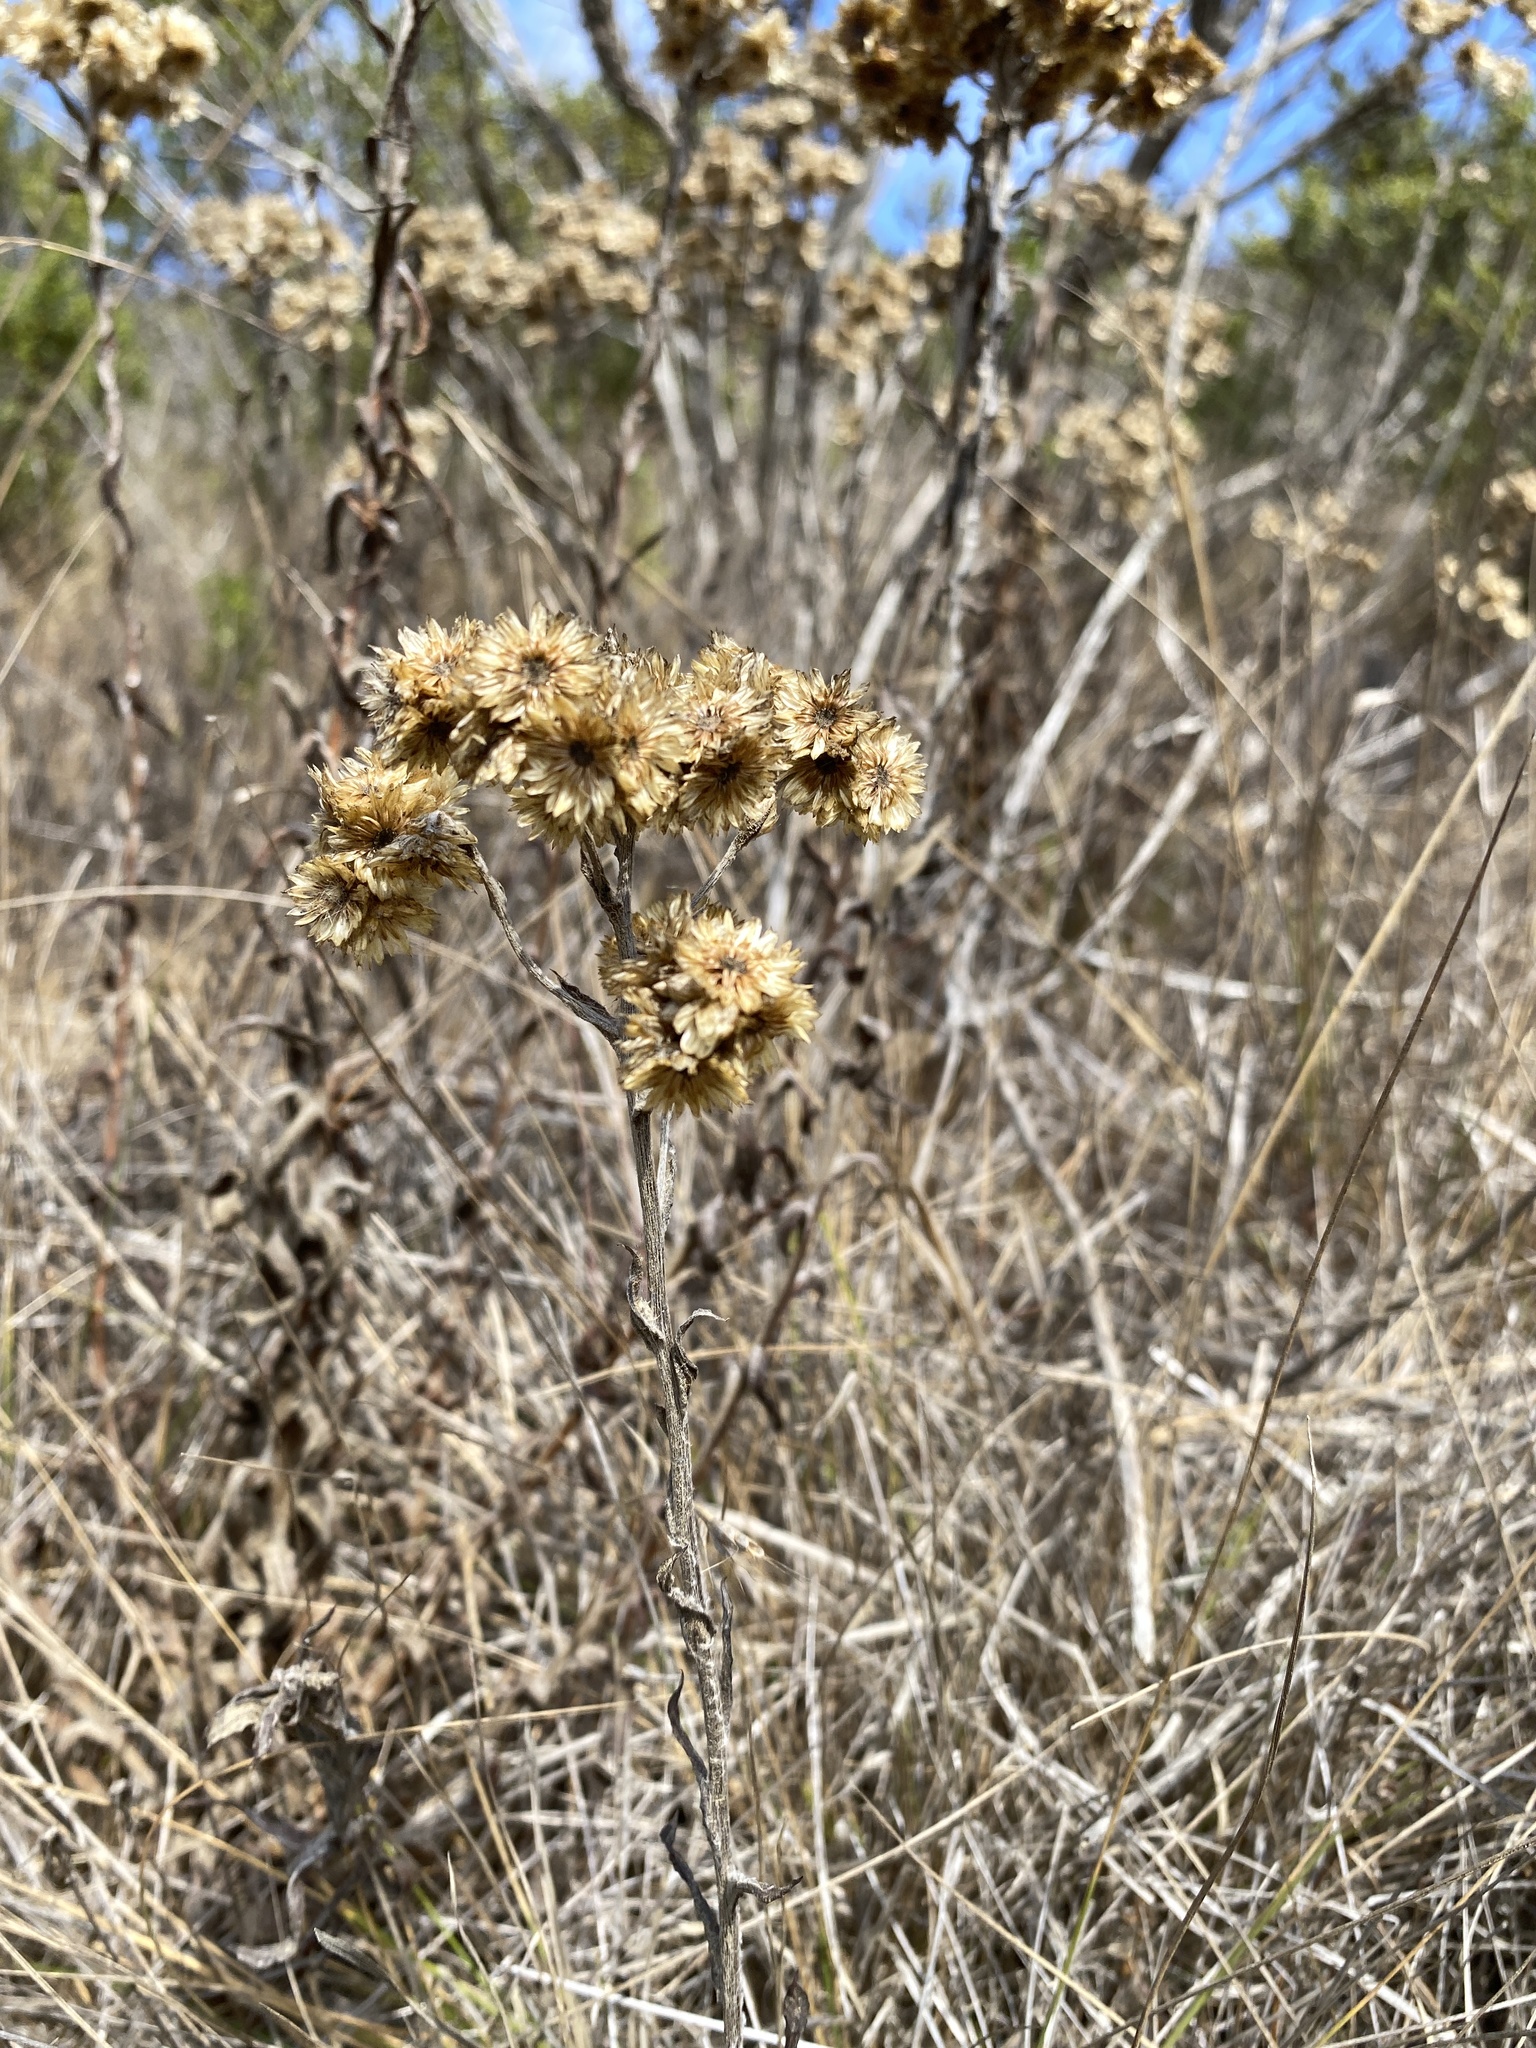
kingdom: Plantae
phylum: Tracheophyta
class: Magnoliopsida
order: Asterales
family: Asteraceae
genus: Pseudognaphalium
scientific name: Pseudognaphalium californicum
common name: California rabbit-tobacco
